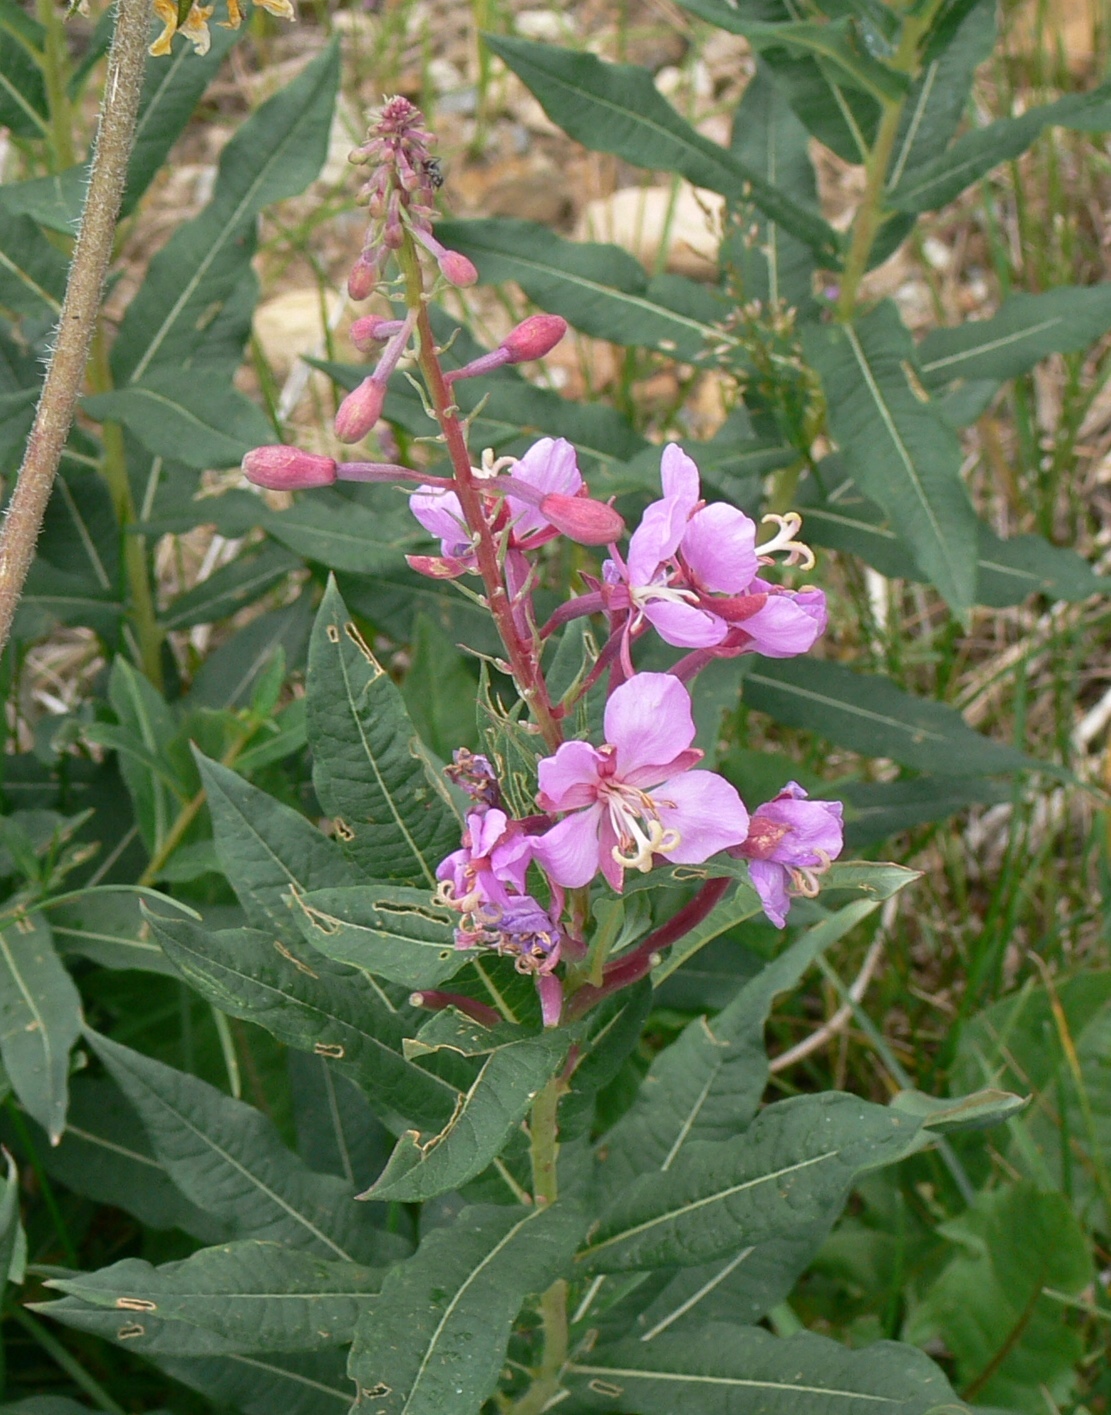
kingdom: Plantae
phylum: Tracheophyta
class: Magnoliopsida
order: Myrtales
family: Onagraceae
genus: Chamaenerion
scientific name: Chamaenerion angustifolium
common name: Fireweed
